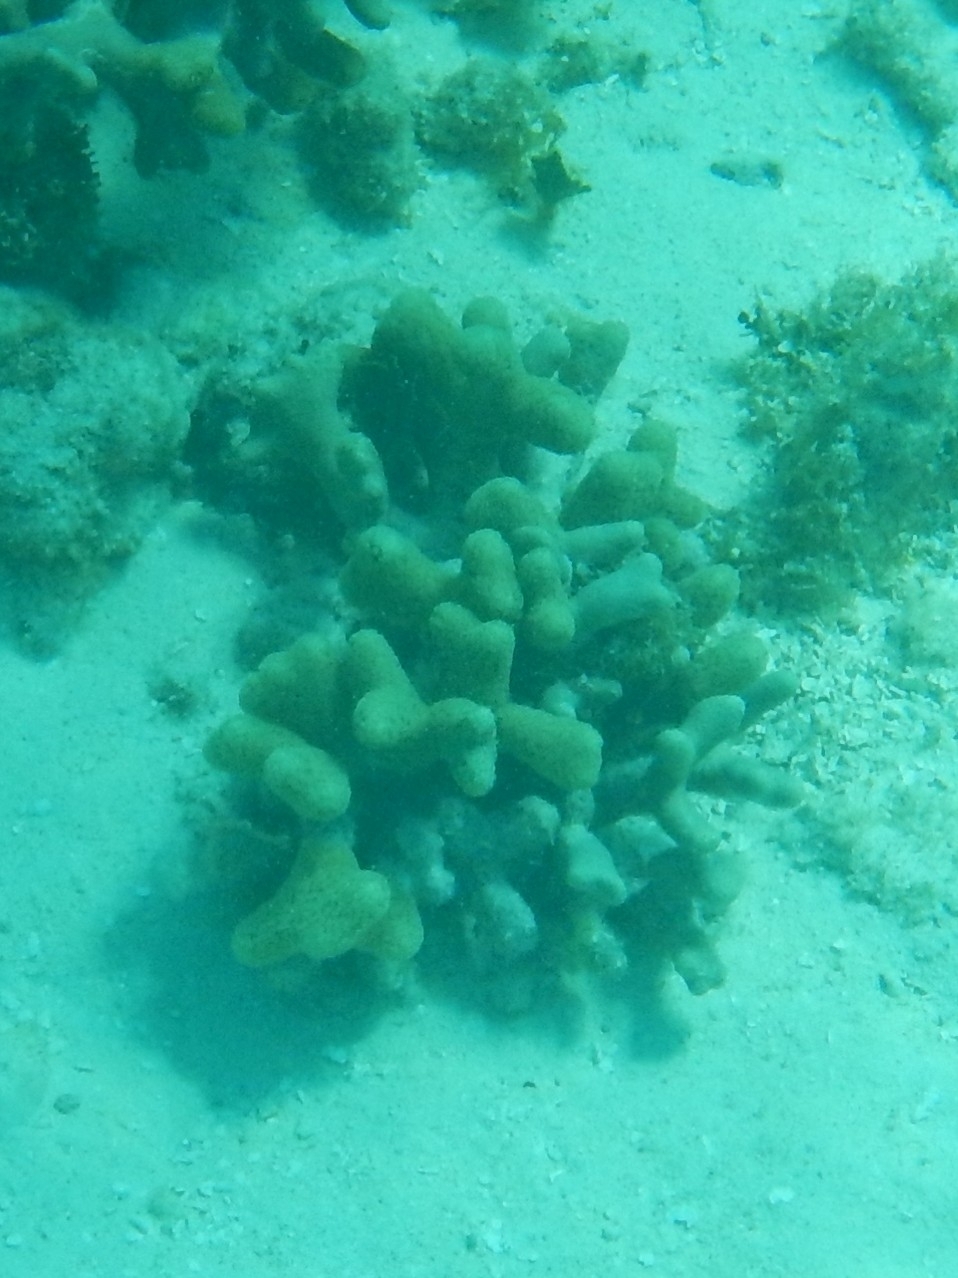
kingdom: Animalia
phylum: Cnidaria
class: Anthozoa
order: Scleractinia
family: Poritidae
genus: Porites
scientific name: Porites porites
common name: Finger coral
